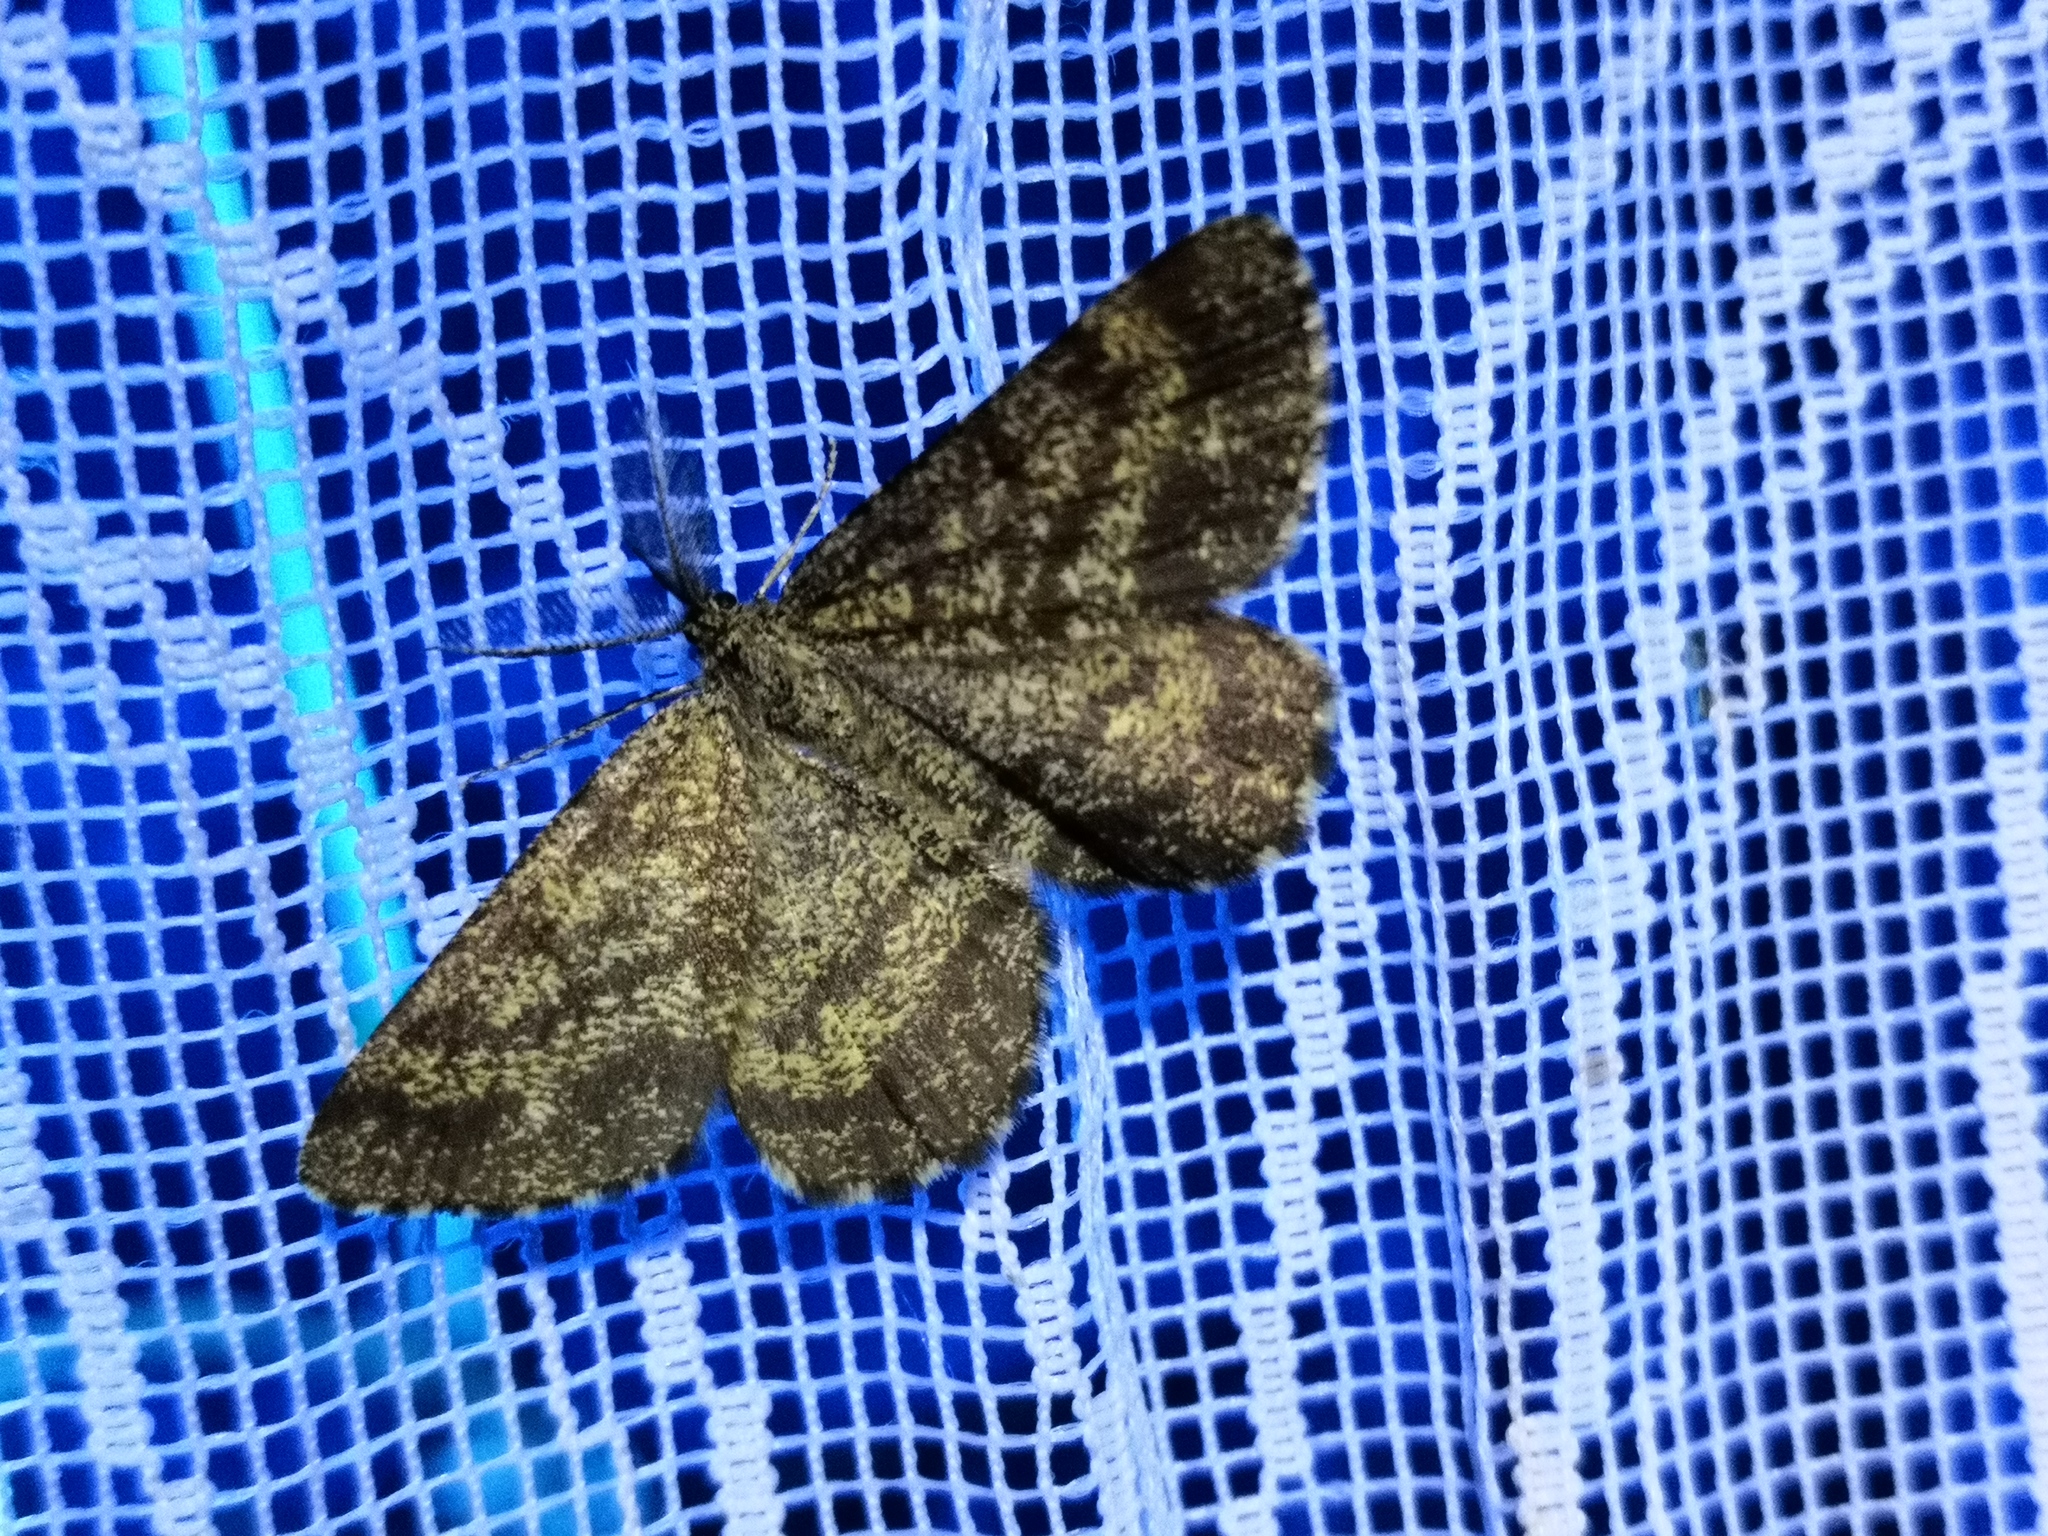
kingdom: Animalia
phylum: Arthropoda
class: Insecta
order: Lepidoptera
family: Geometridae
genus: Ematurga
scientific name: Ematurga atomaria
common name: Common heath
